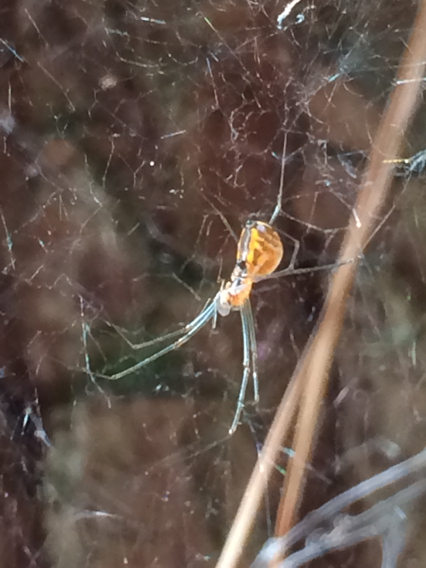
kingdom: Animalia
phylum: Arthropoda
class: Arachnida
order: Araneae
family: Linyphiidae
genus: Neriene
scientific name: Neriene radiata
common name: Filmy dome spider
